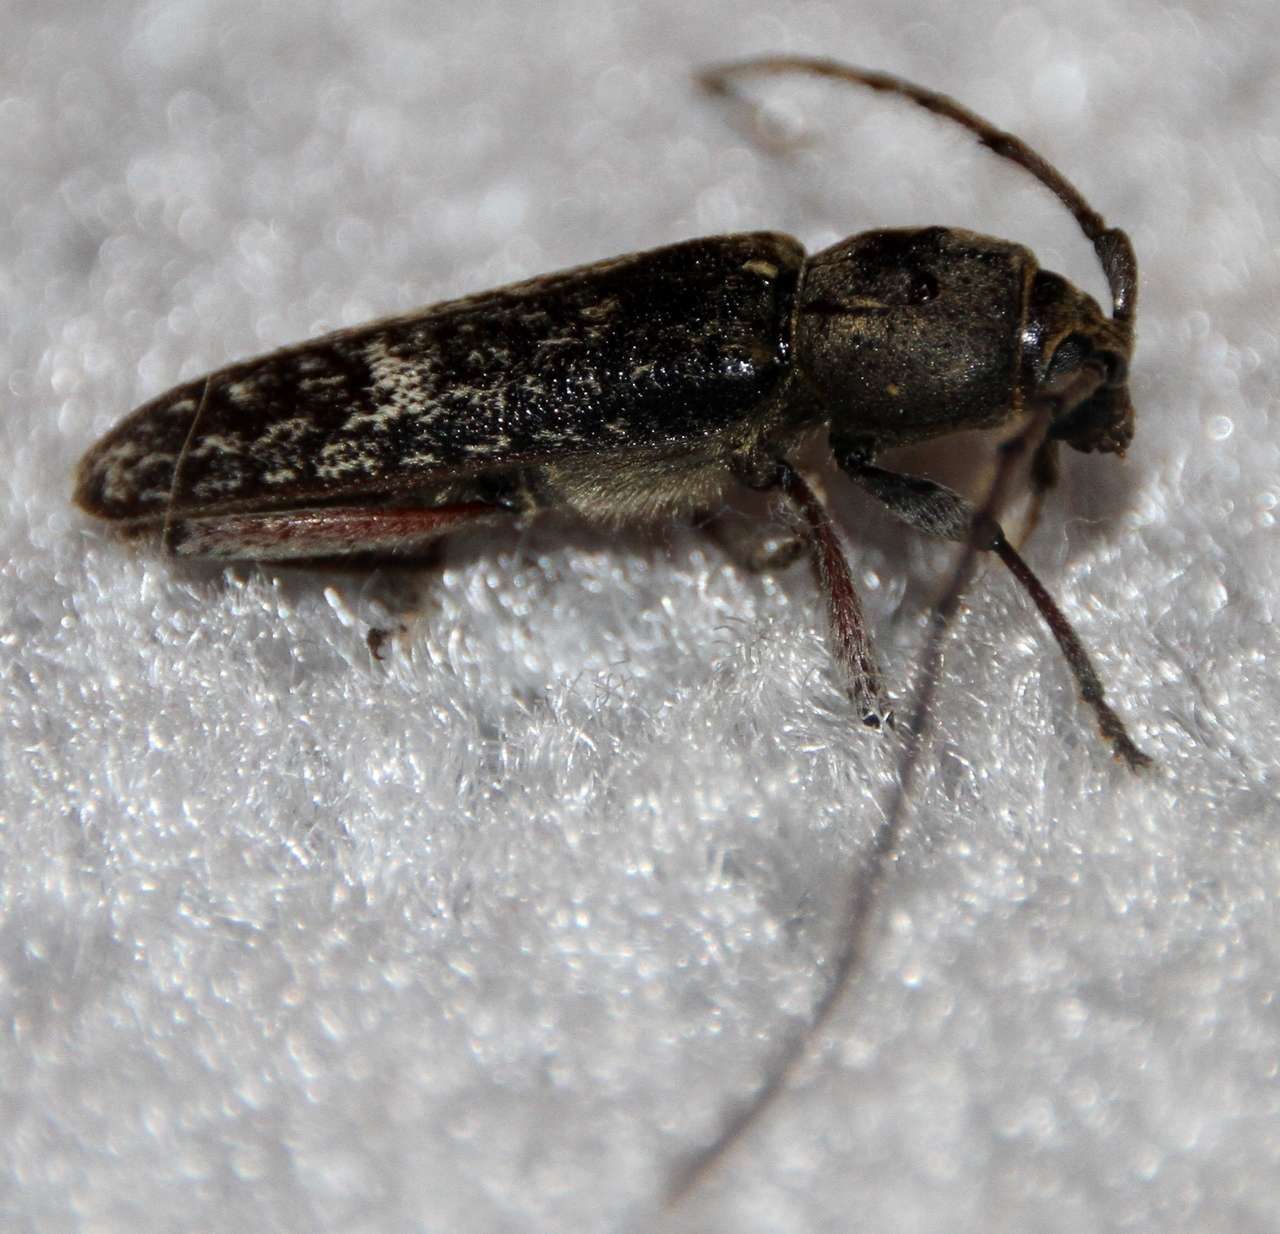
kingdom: Animalia
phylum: Arthropoda
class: Insecta
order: Coleoptera
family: Cerambycidae
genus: Phacodes
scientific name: Phacodes obscurus
